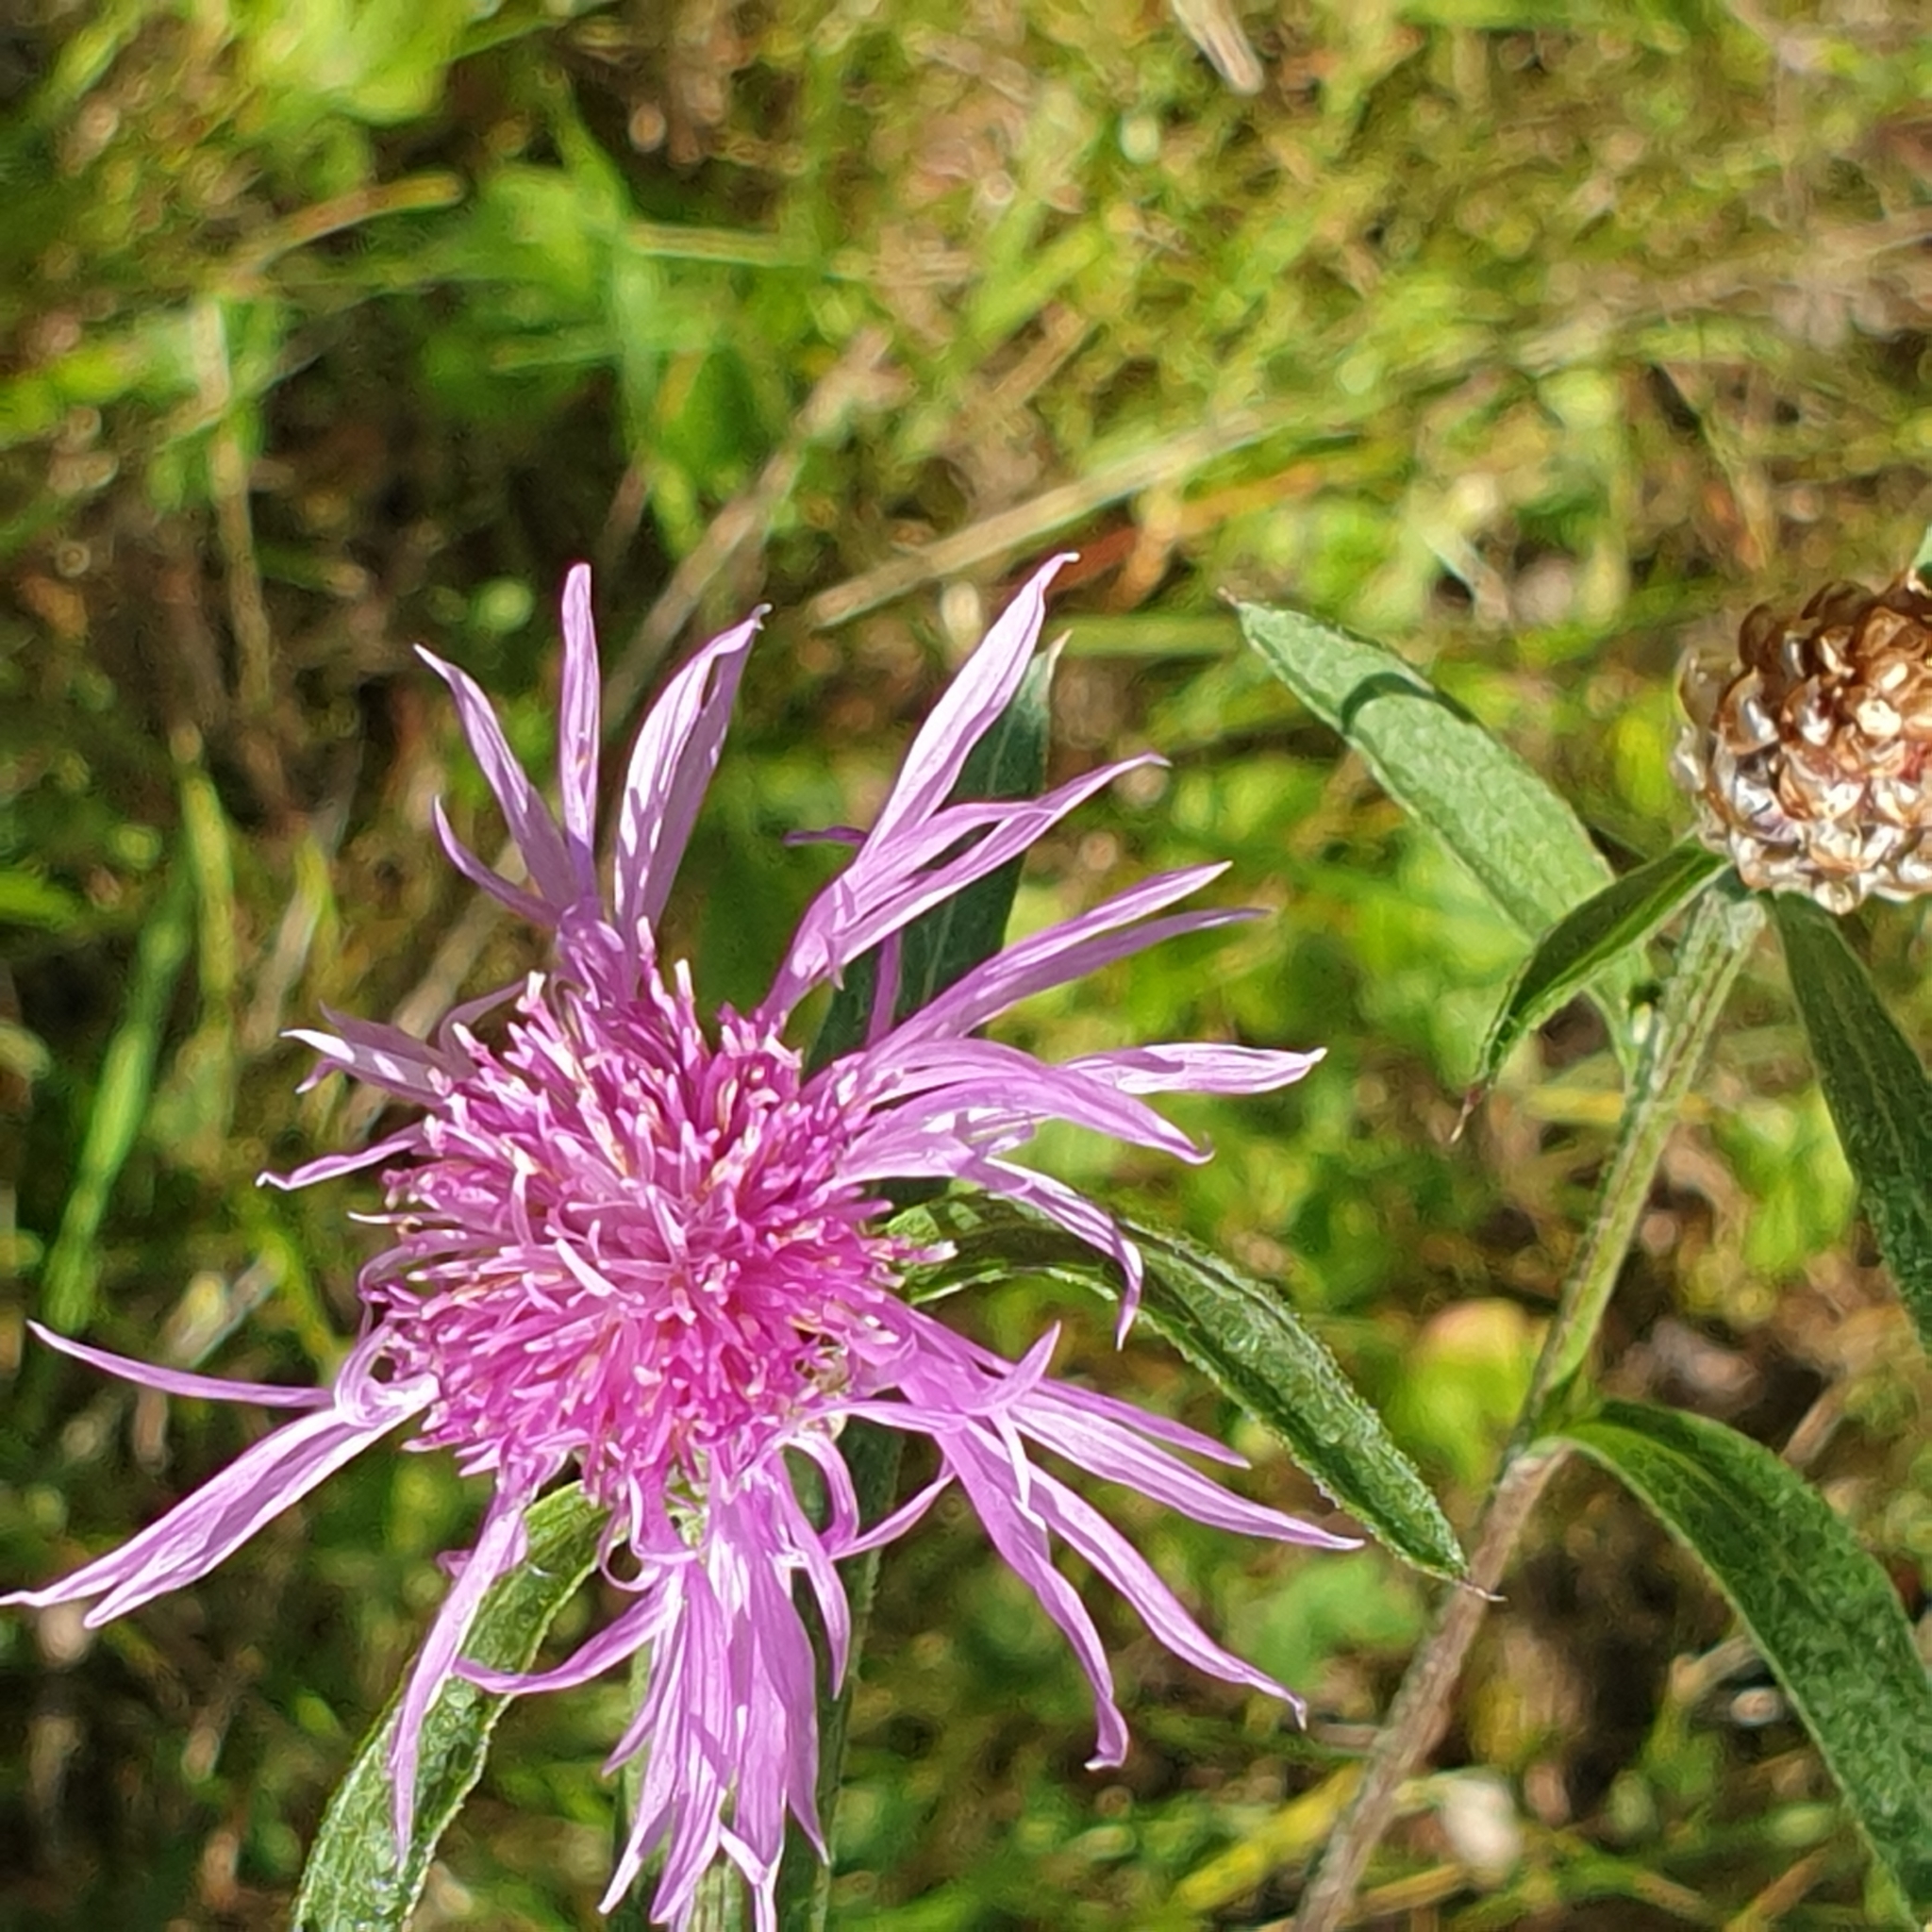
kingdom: Plantae
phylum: Tracheophyta
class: Magnoliopsida
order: Asterales
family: Asteraceae
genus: Centaurea
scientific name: Centaurea jacea
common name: Brown knapweed
